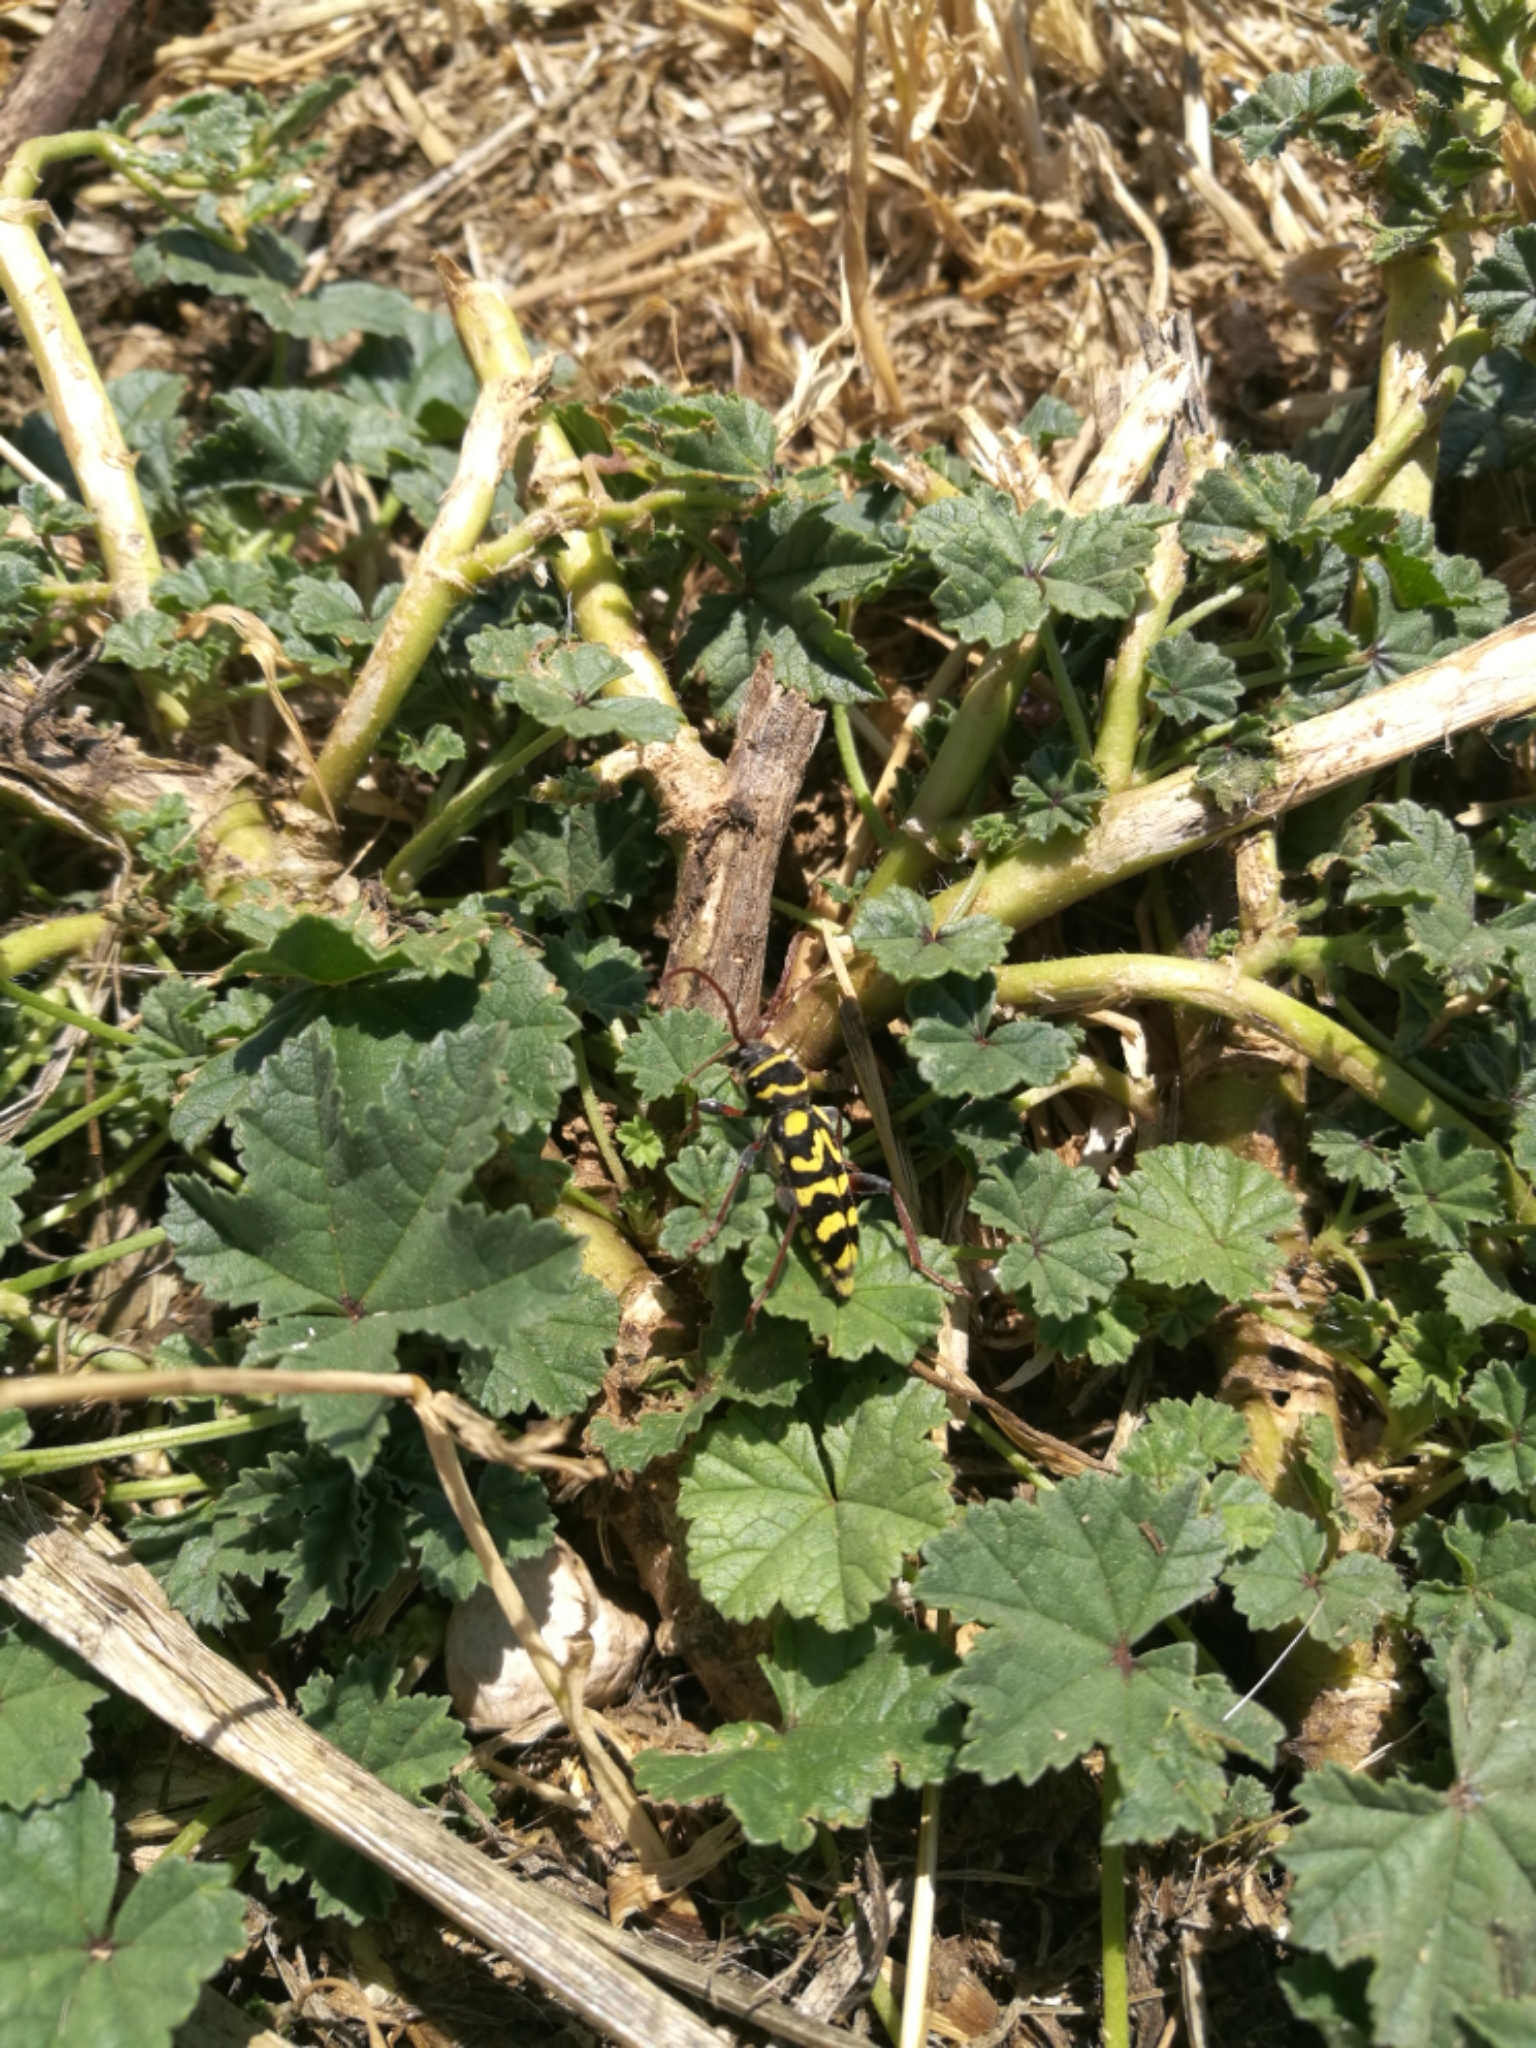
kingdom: Animalia
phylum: Arthropoda
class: Insecta
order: Coleoptera
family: Cerambycidae
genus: Neoplagionotus
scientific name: Neoplagionotus scalaris
